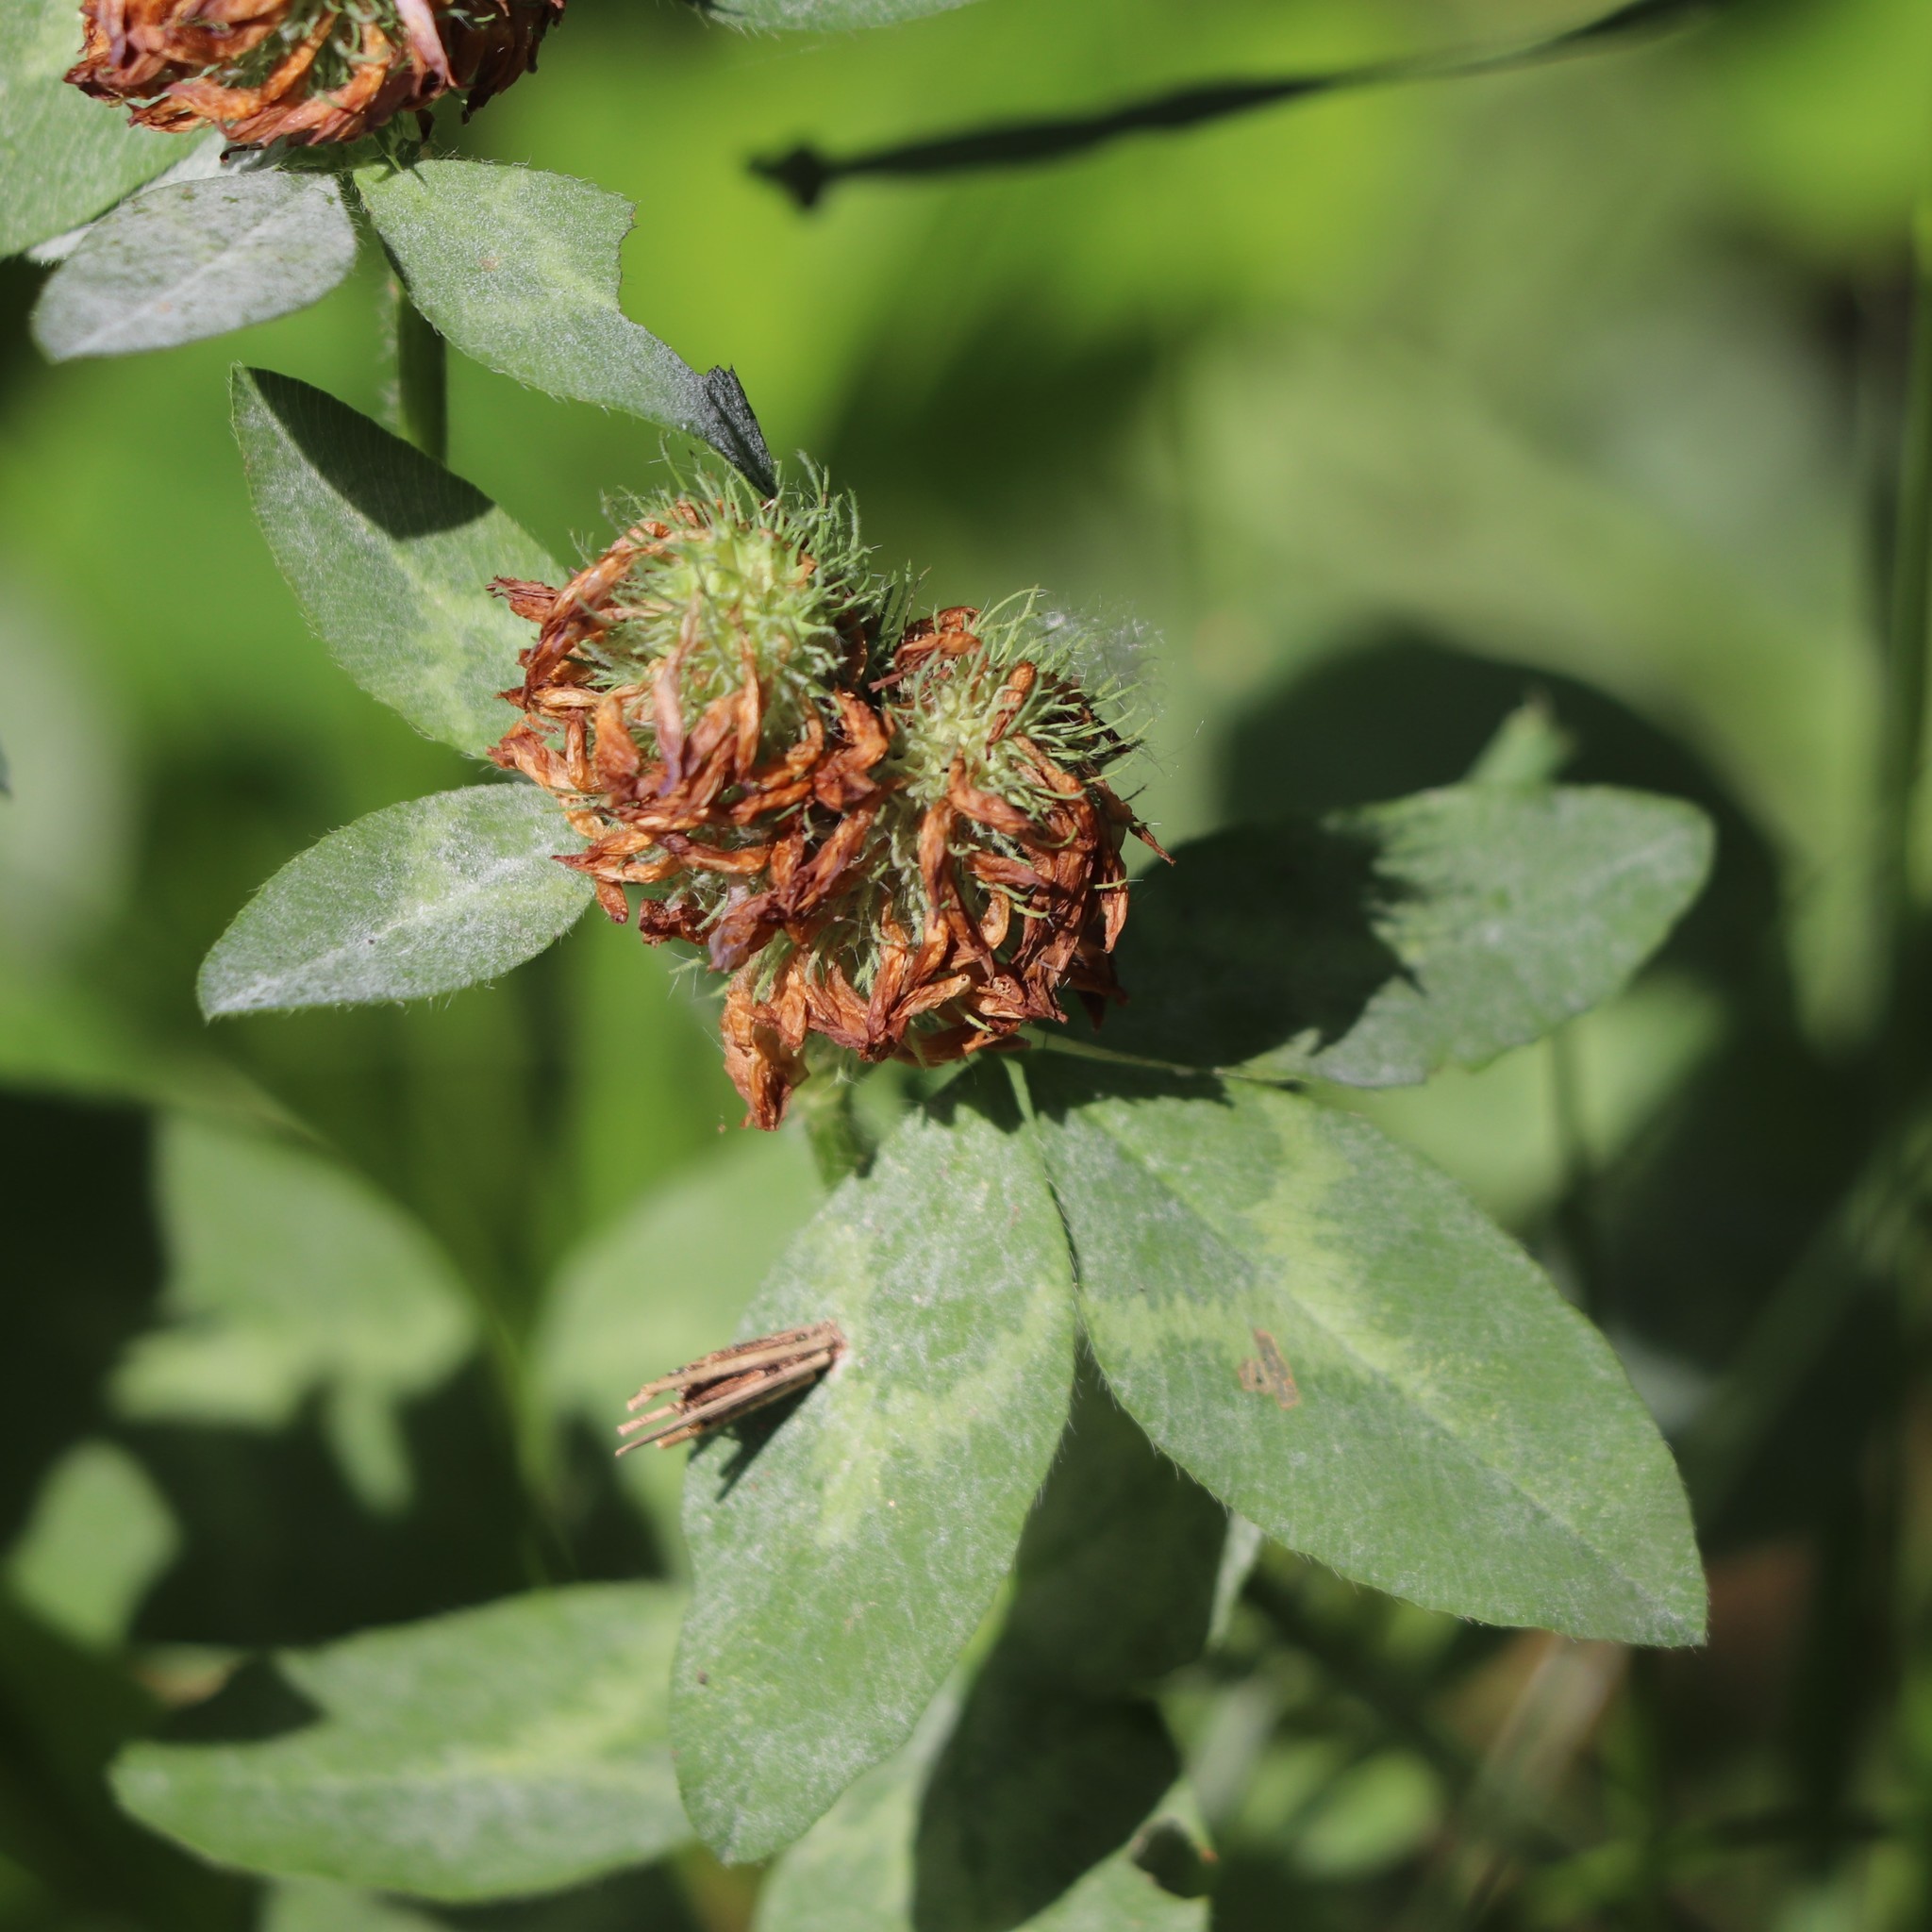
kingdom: Plantae
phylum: Tracheophyta
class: Magnoliopsida
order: Fabales
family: Fabaceae
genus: Trifolium
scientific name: Trifolium pratense
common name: Red clover
